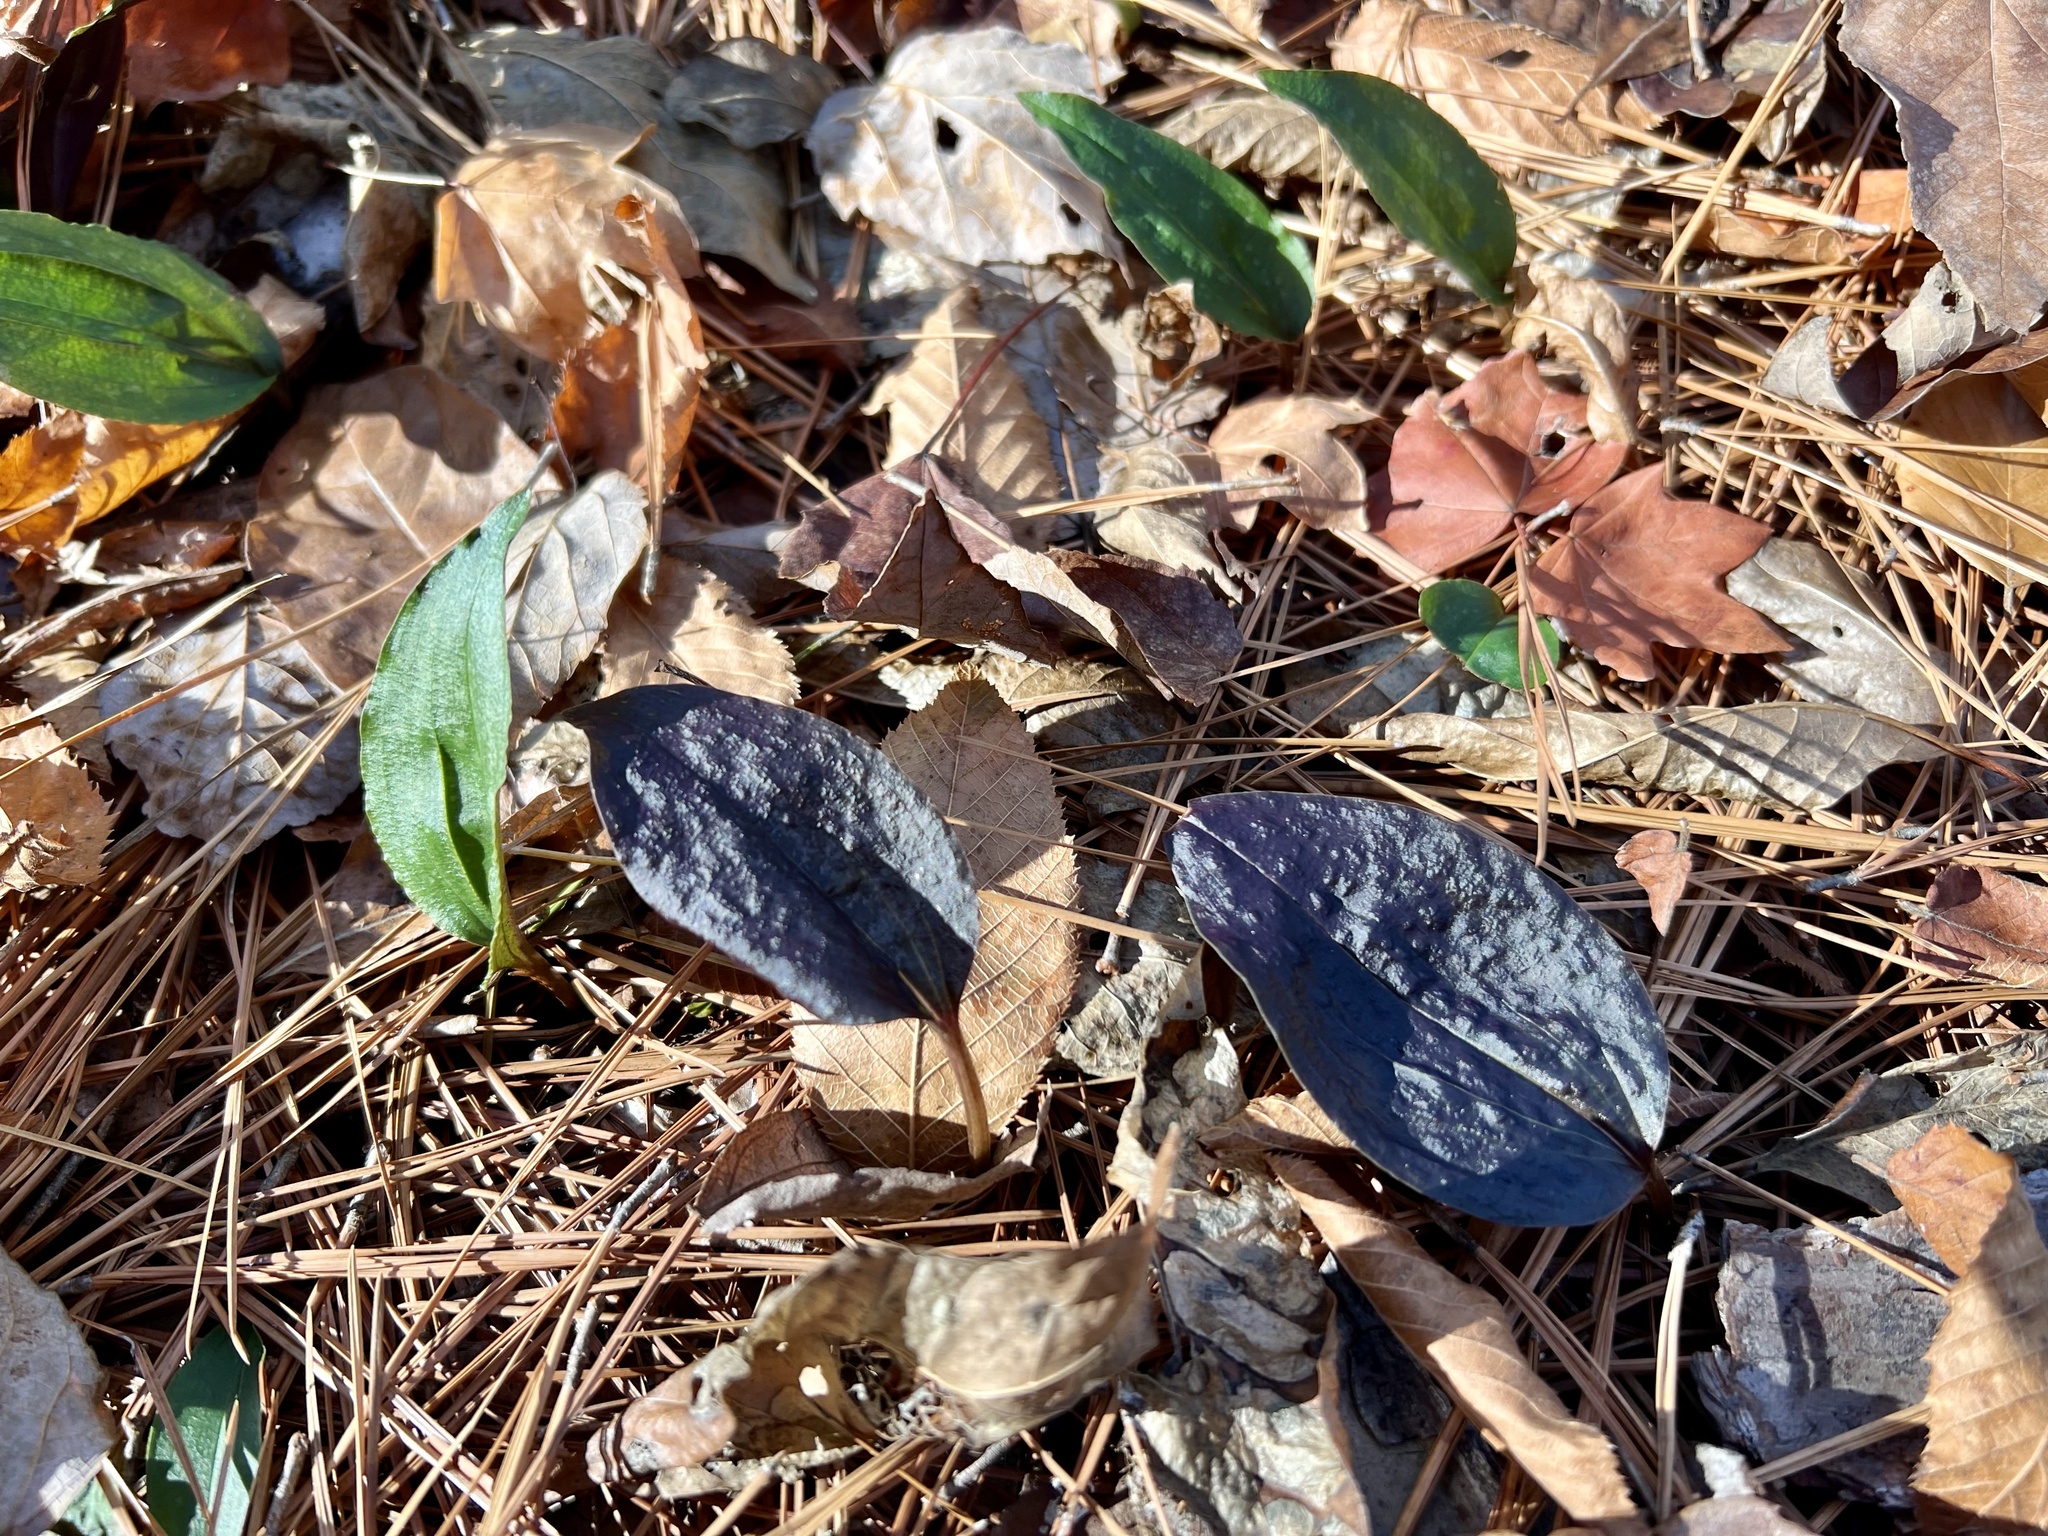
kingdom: Plantae
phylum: Tracheophyta
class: Liliopsida
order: Asparagales
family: Orchidaceae
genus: Tipularia
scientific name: Tipularia discolor
